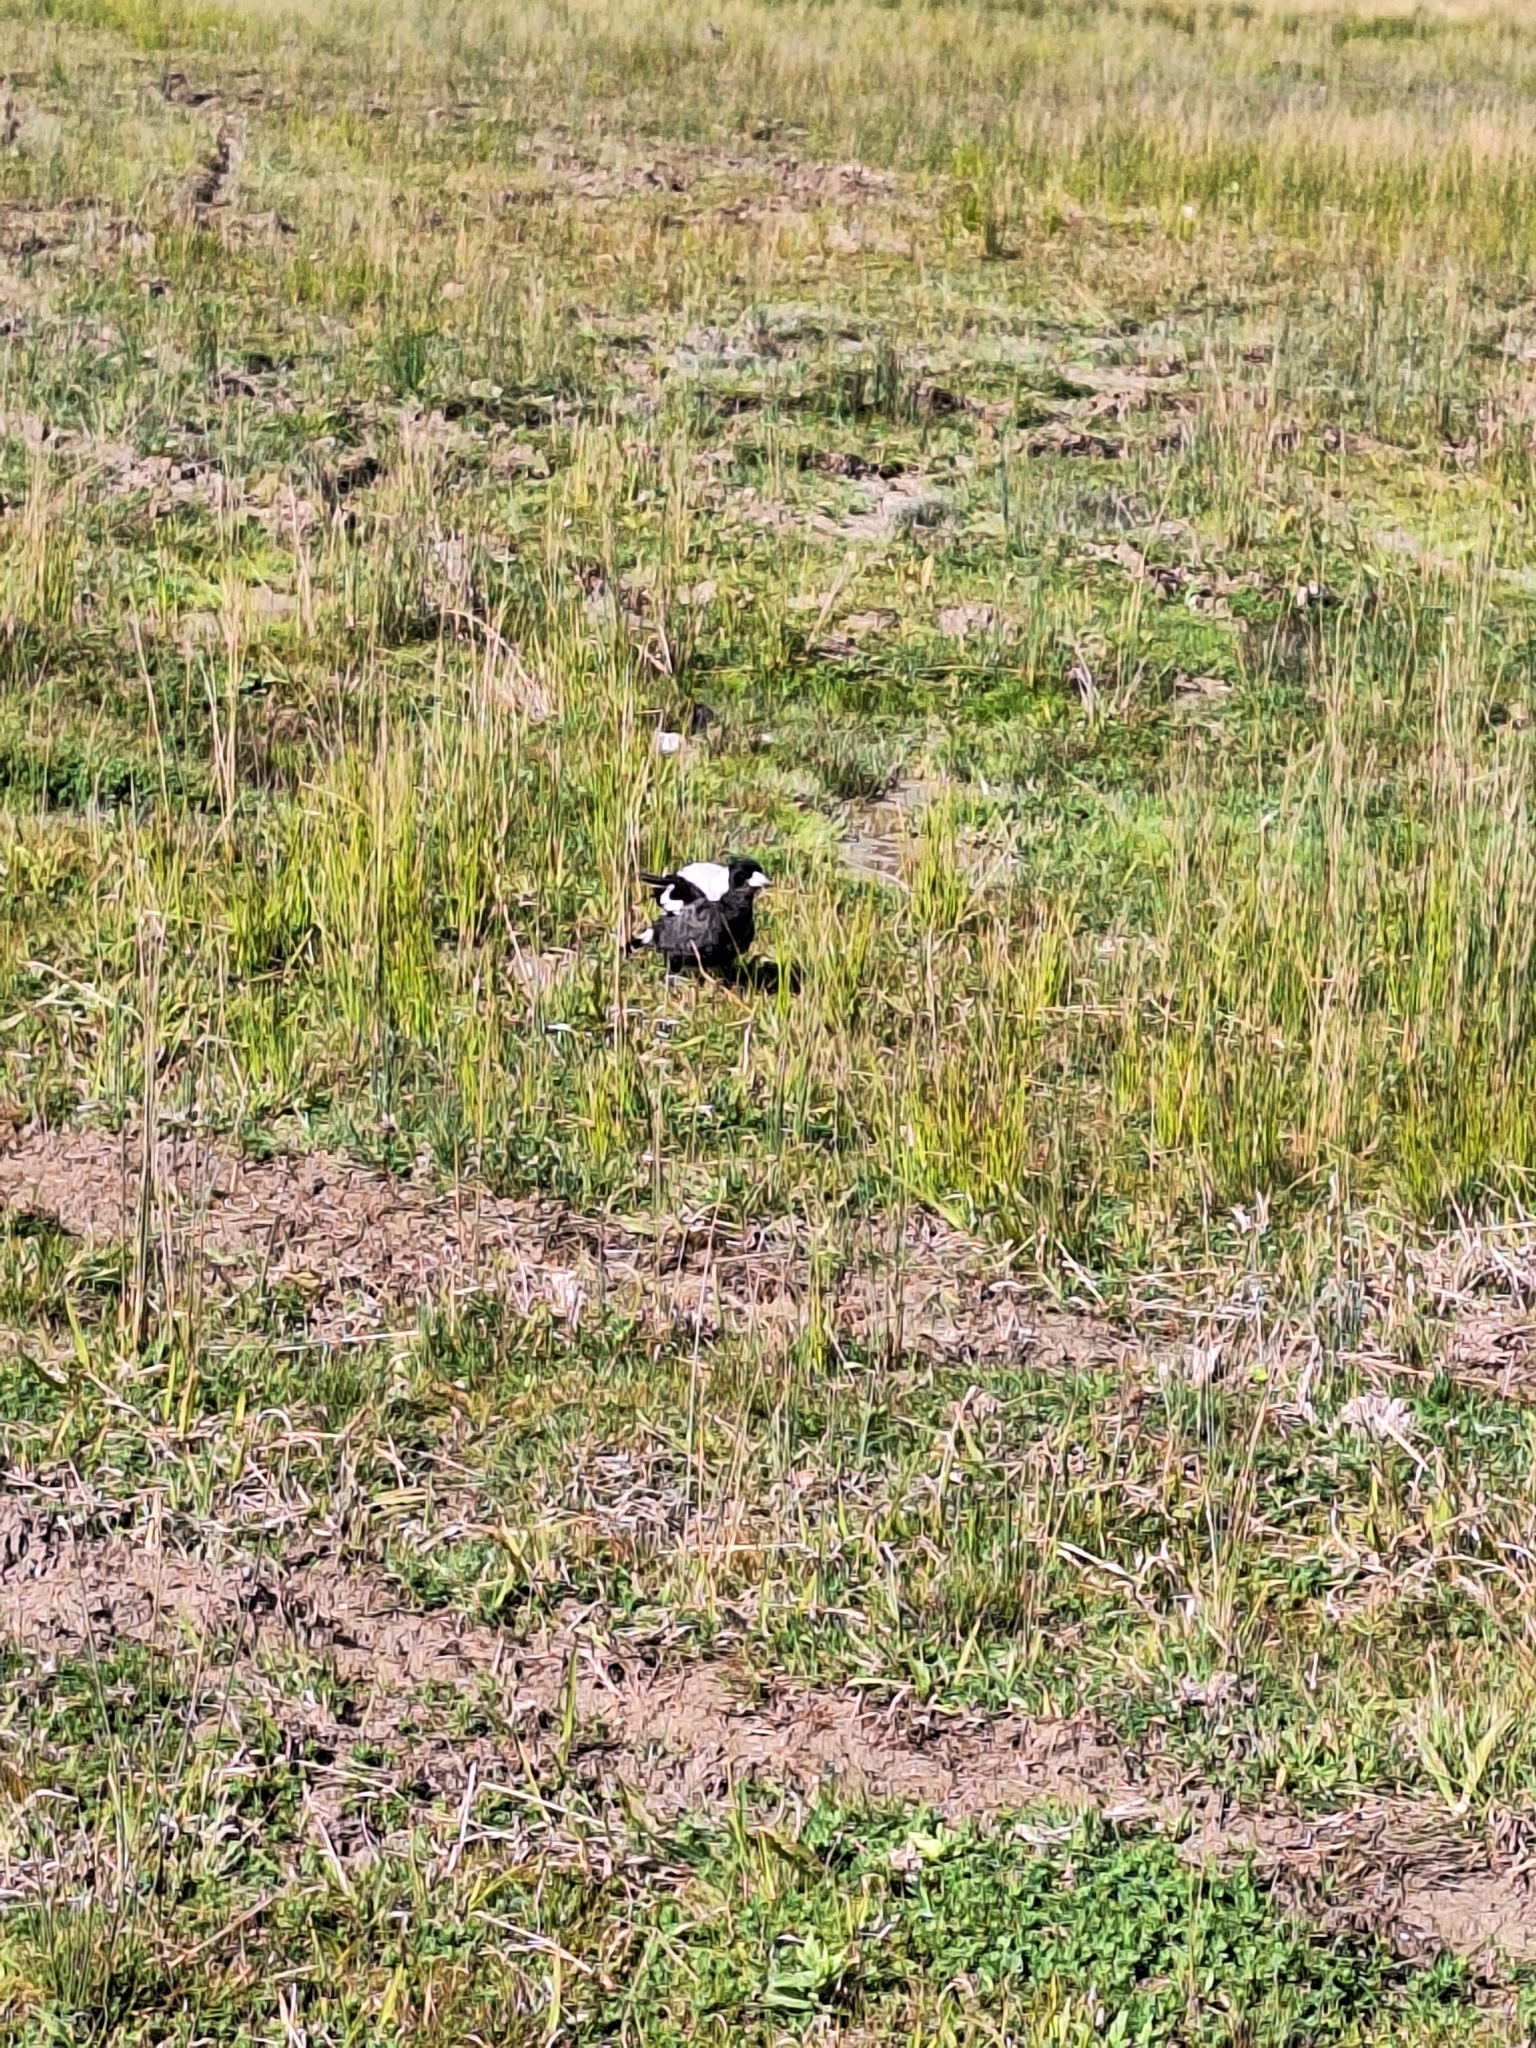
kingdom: Animalia
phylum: Chordata
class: Aves
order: Passeriformes
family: Cracticidae
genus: Gymnorhina
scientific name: Gymnorhina tibicen
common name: Australian magpie
